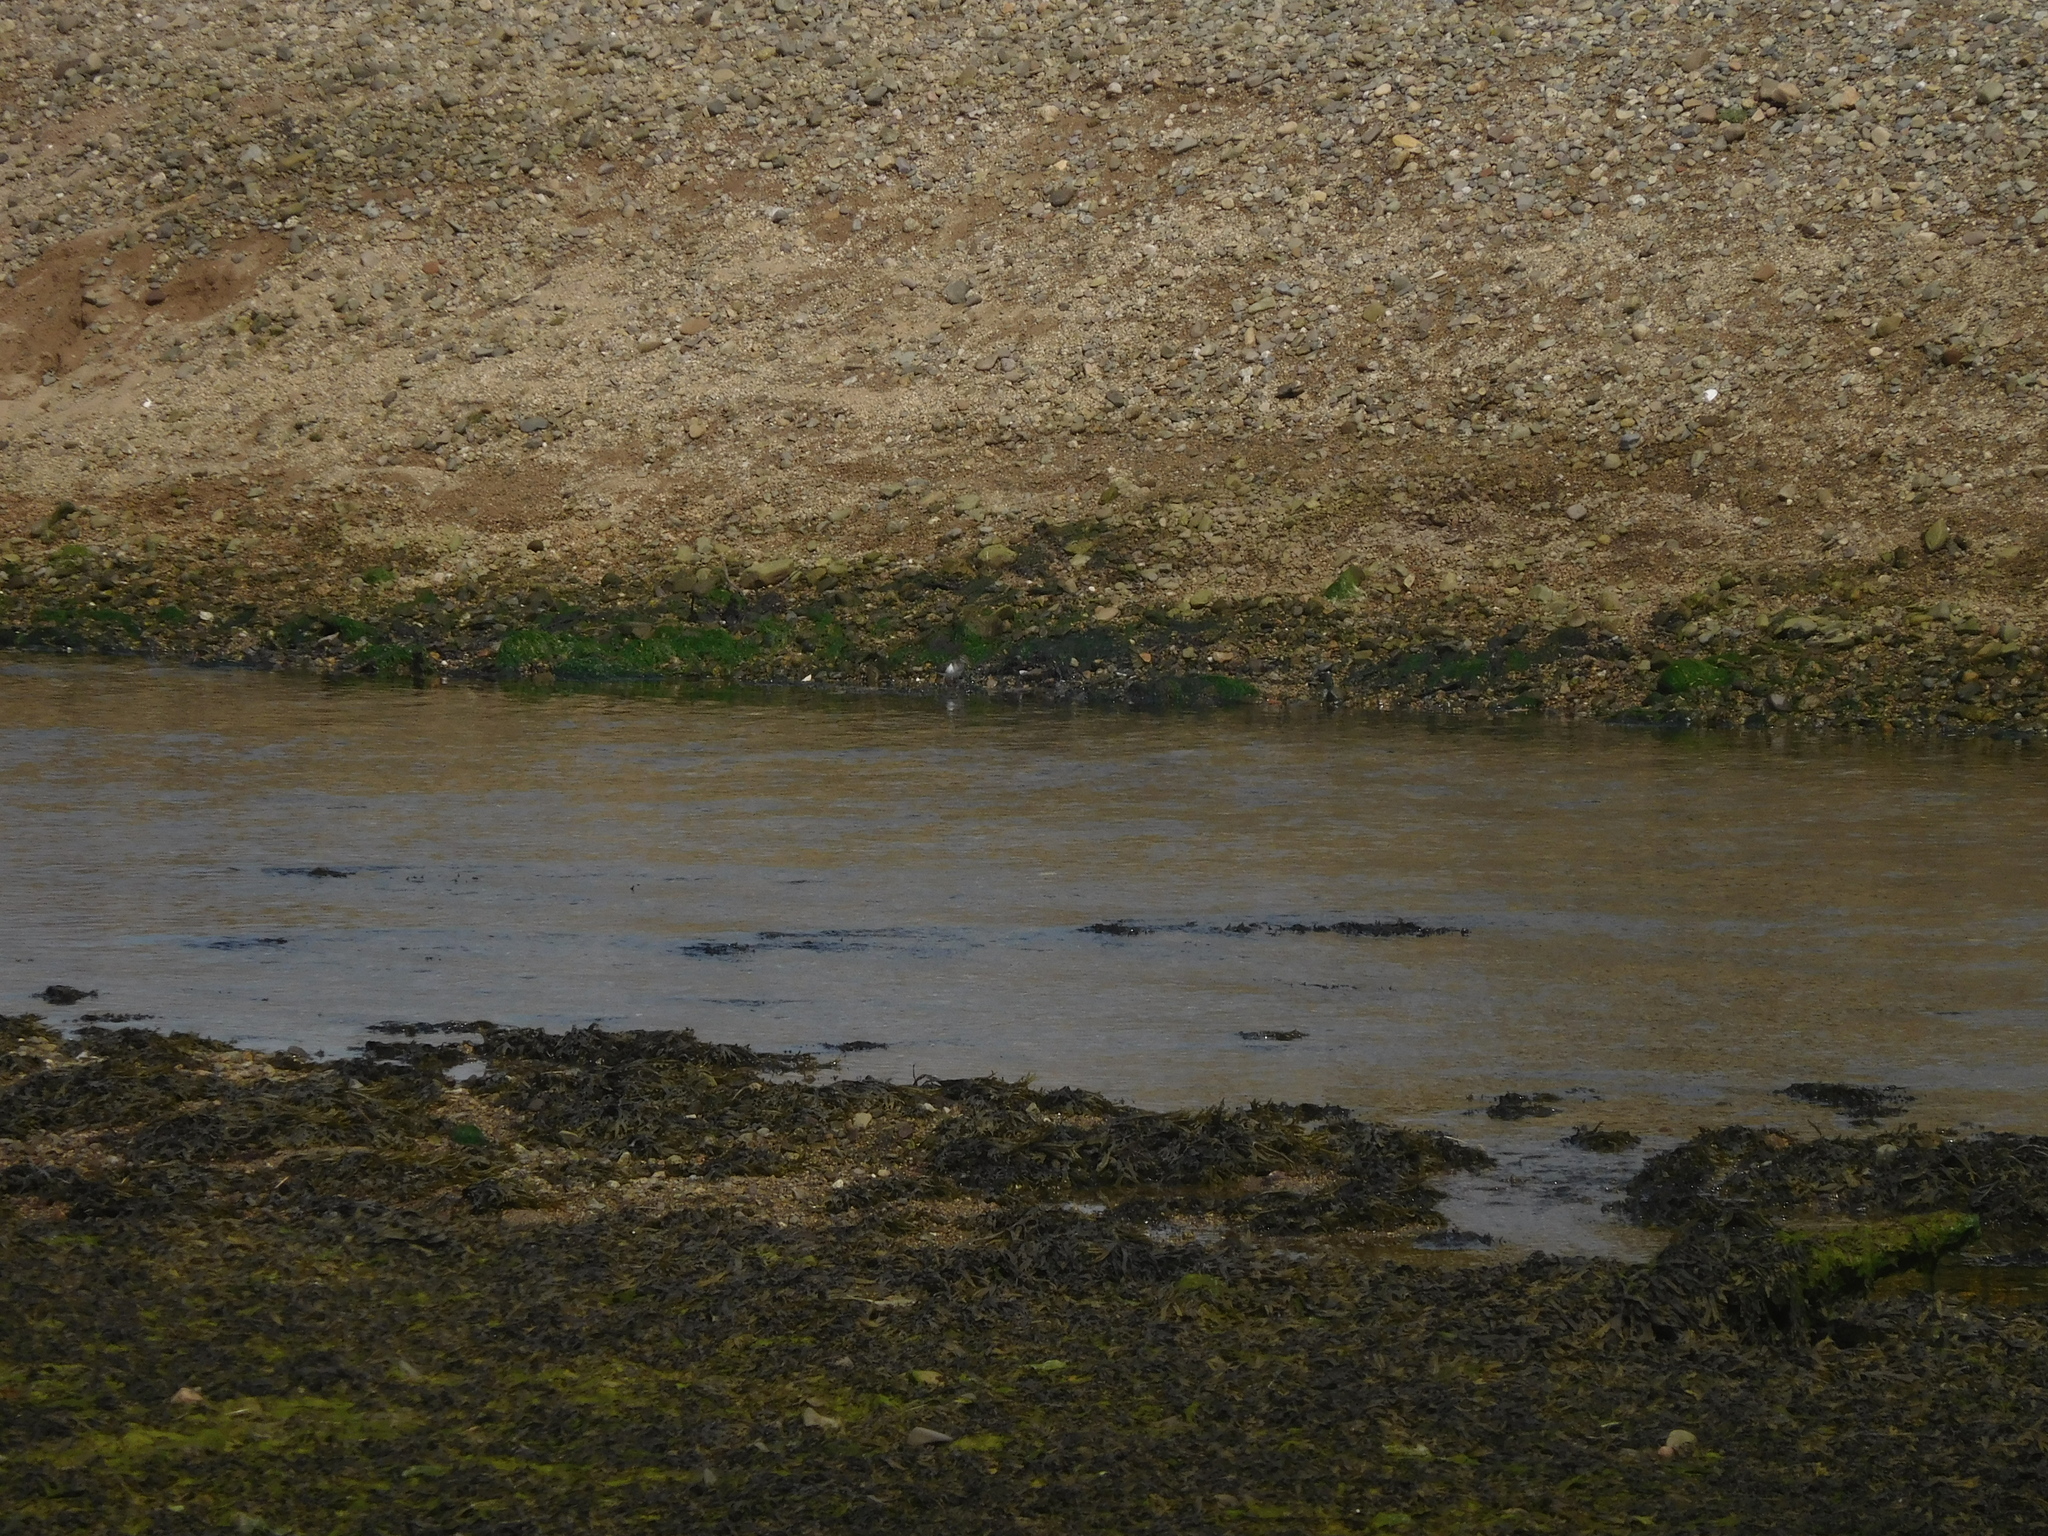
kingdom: Animalia
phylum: Chordata
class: Aves
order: Charadriiformes
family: Scolopacidae
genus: Actitis
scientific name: Actitis hypoleucos
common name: Common sandpiper
